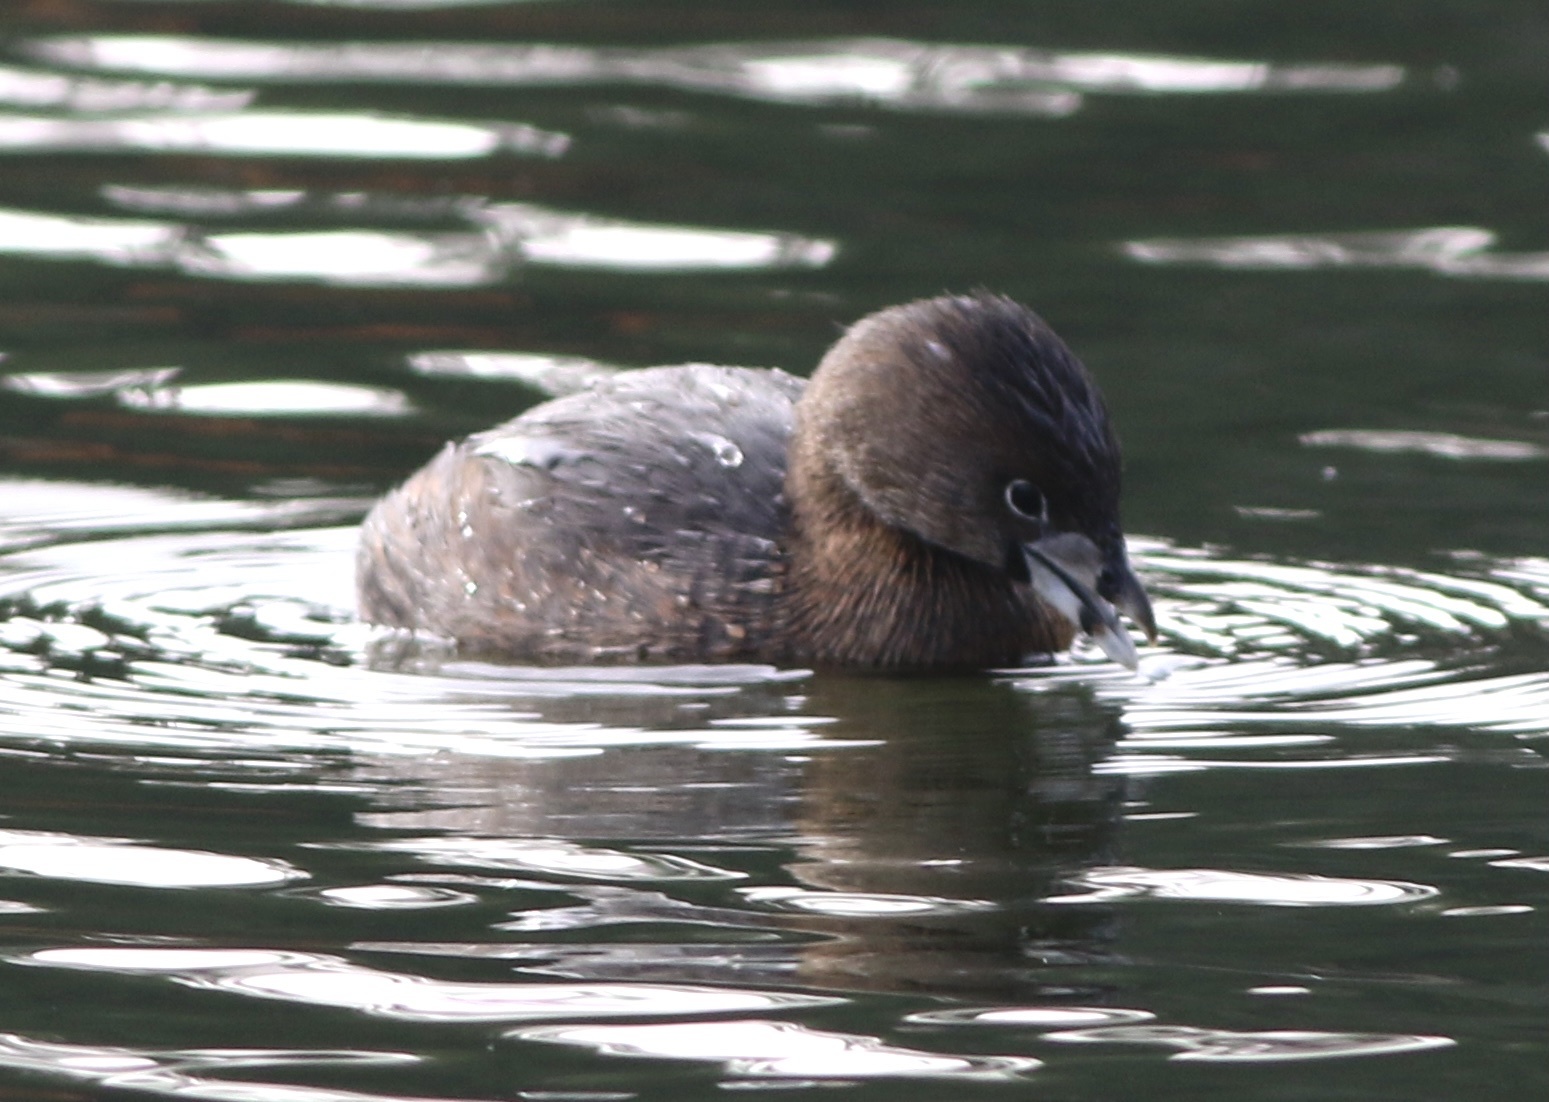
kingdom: Animalia
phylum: Chordata
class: Aves
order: Podicipediformes
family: Podicipedidae
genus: Podilymbus
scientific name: Podilymbus podiceps
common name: Pied-billed grebe
